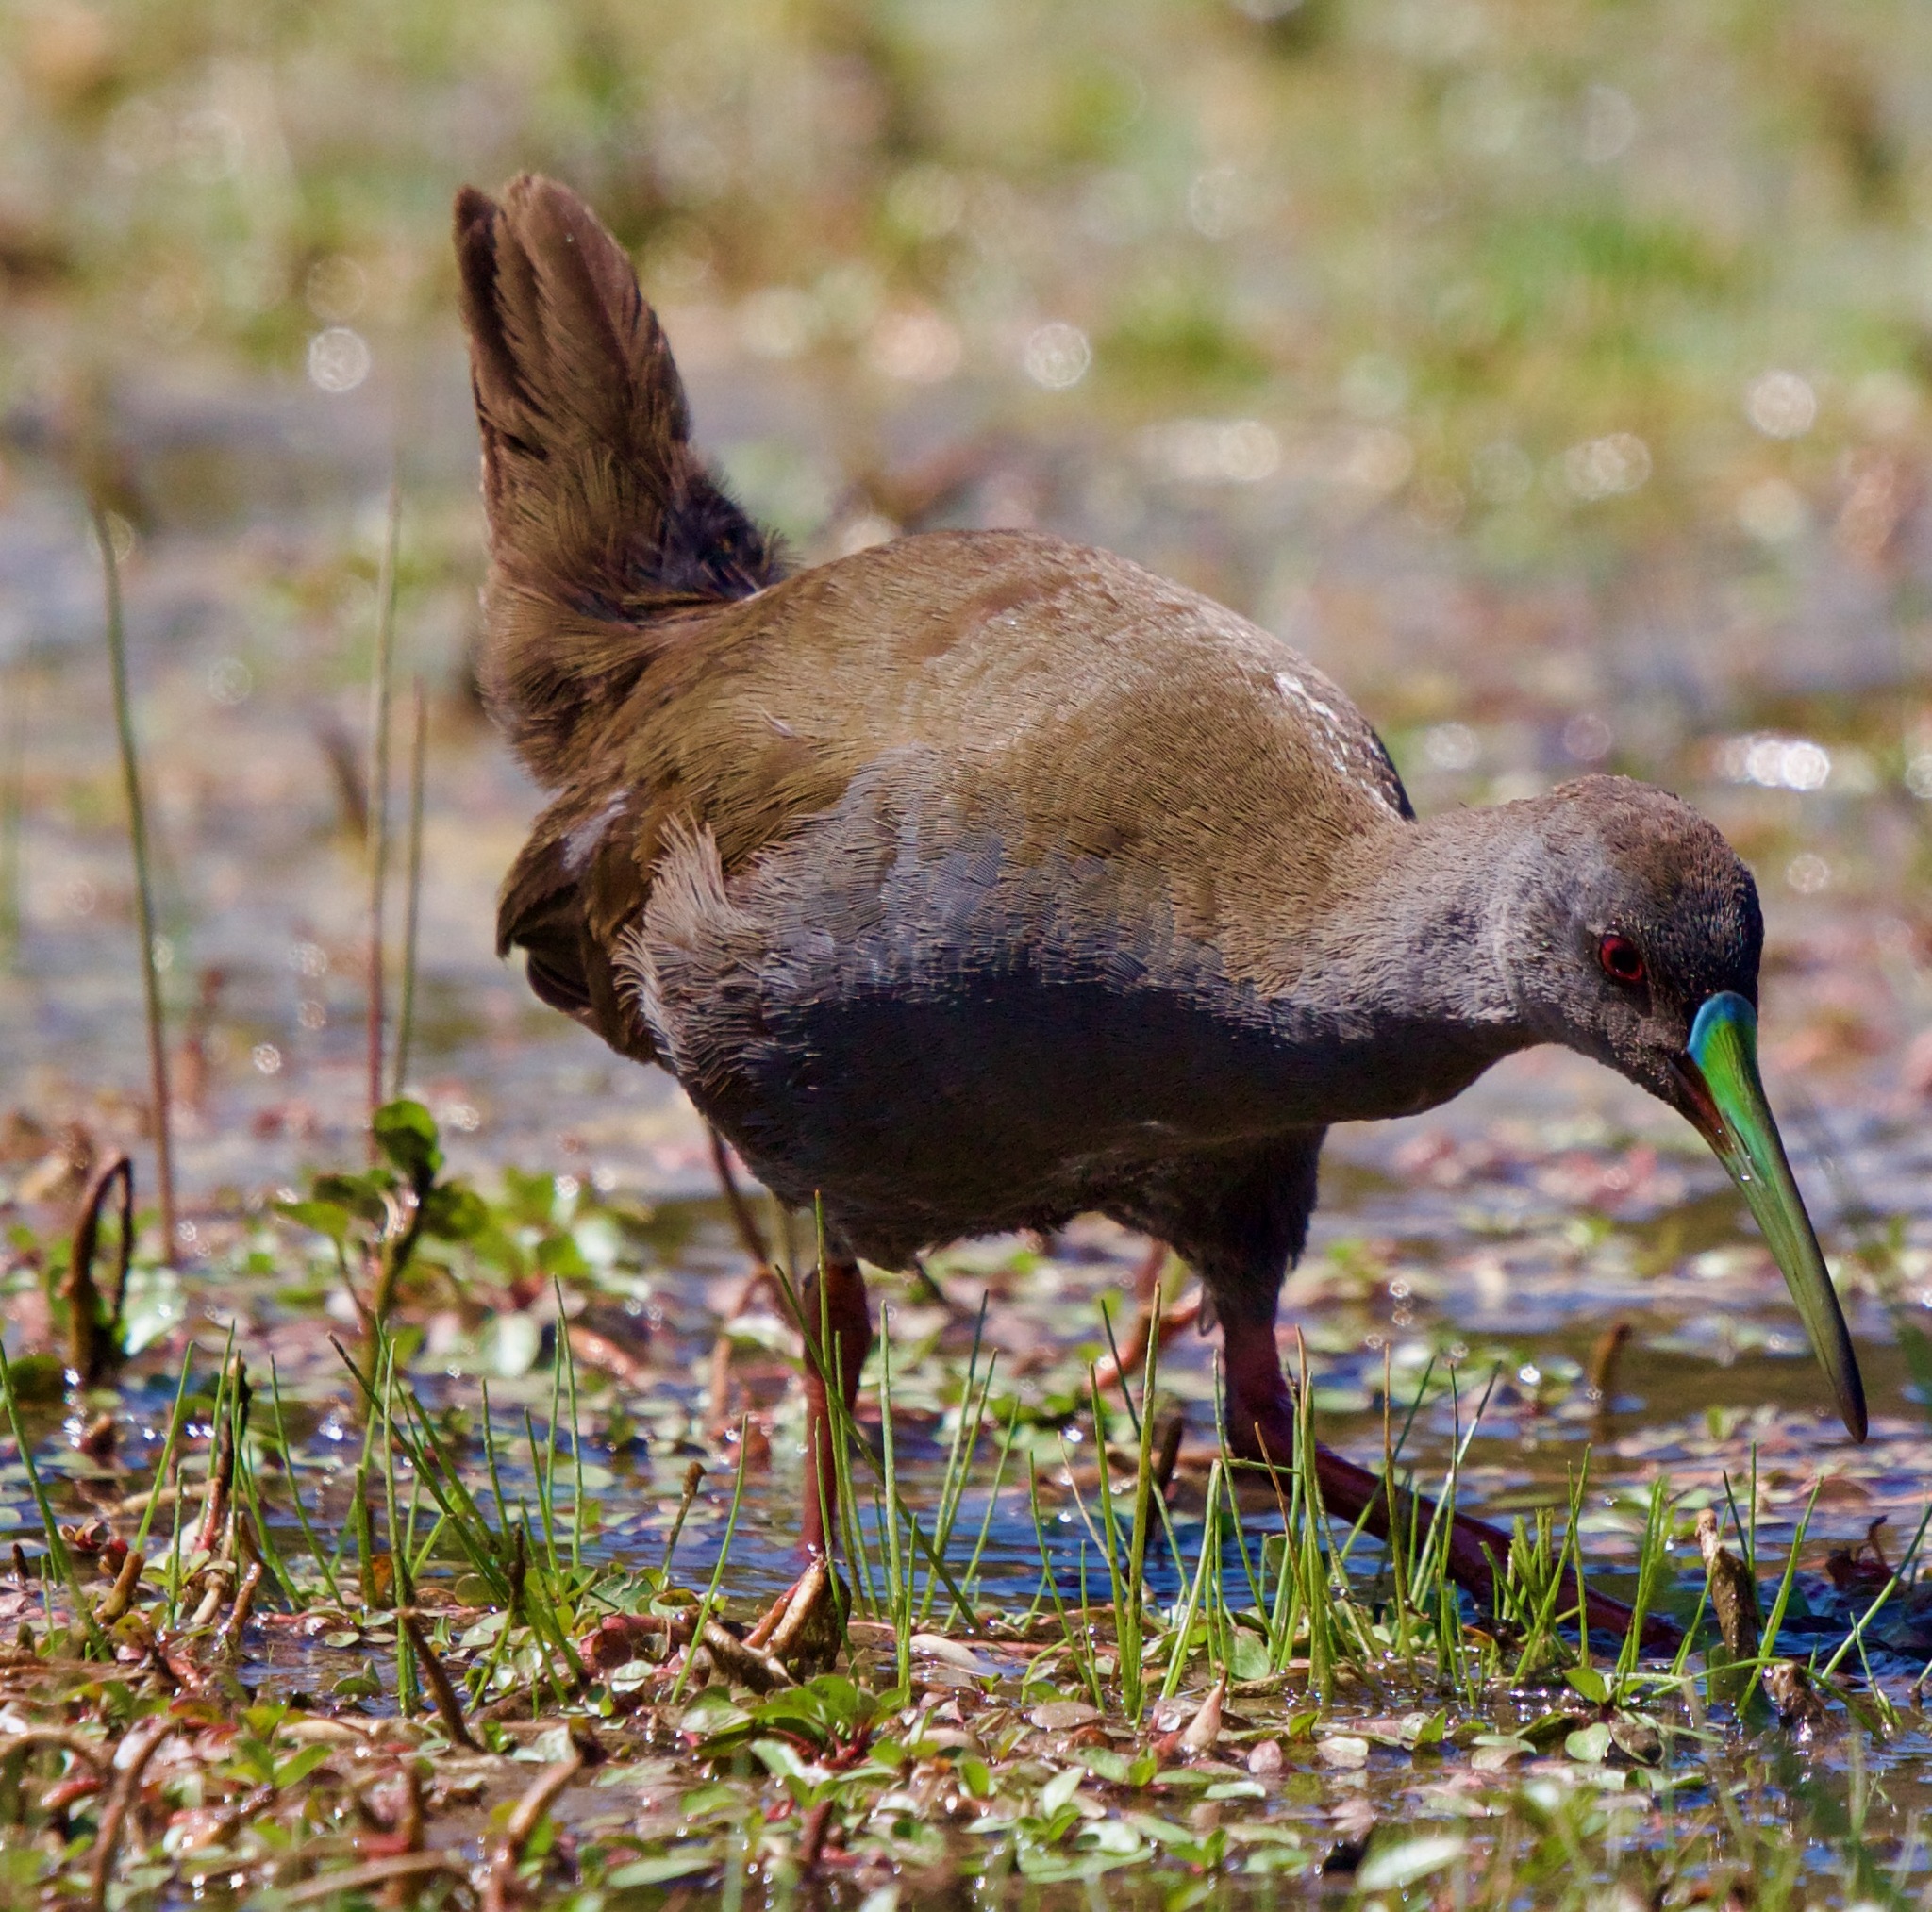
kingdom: Animalia
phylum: Chordata
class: Aves
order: Gruiformes
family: Rallidae
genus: Pardirallus
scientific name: Pardirallus sanguinolentus
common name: Plumbeous rail
